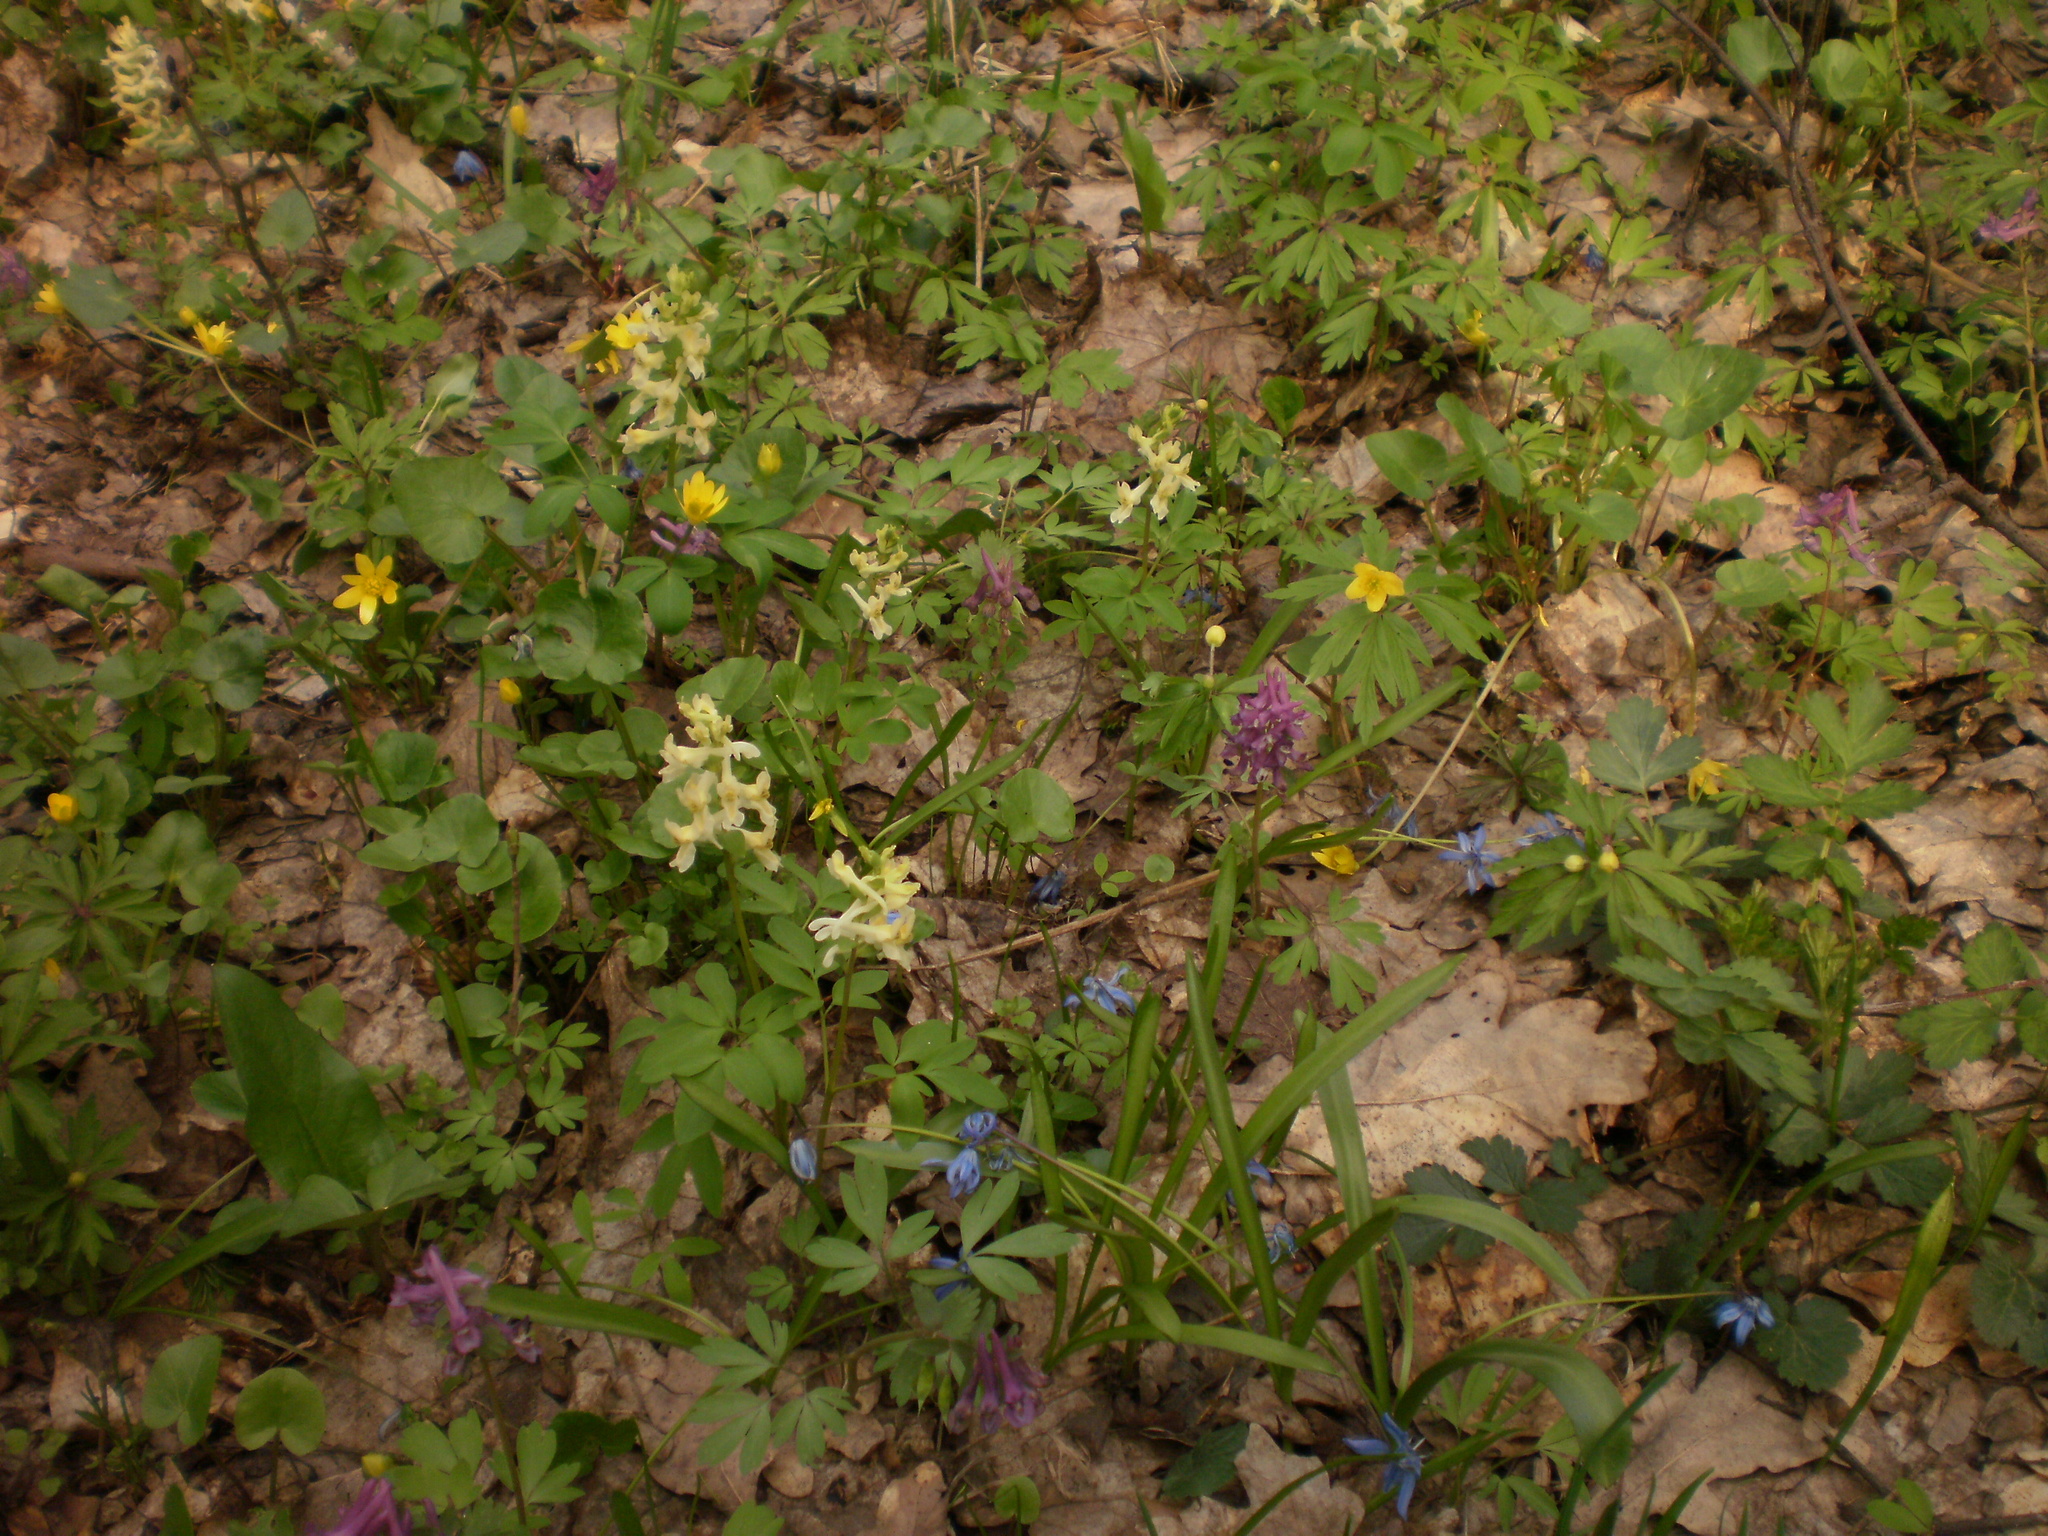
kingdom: Plantae
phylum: Tracheophyta
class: Magnoliopsida
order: Ranunculales
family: Papaveraceae
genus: Corydalis
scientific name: Corydalis cava
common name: Hollowroot
